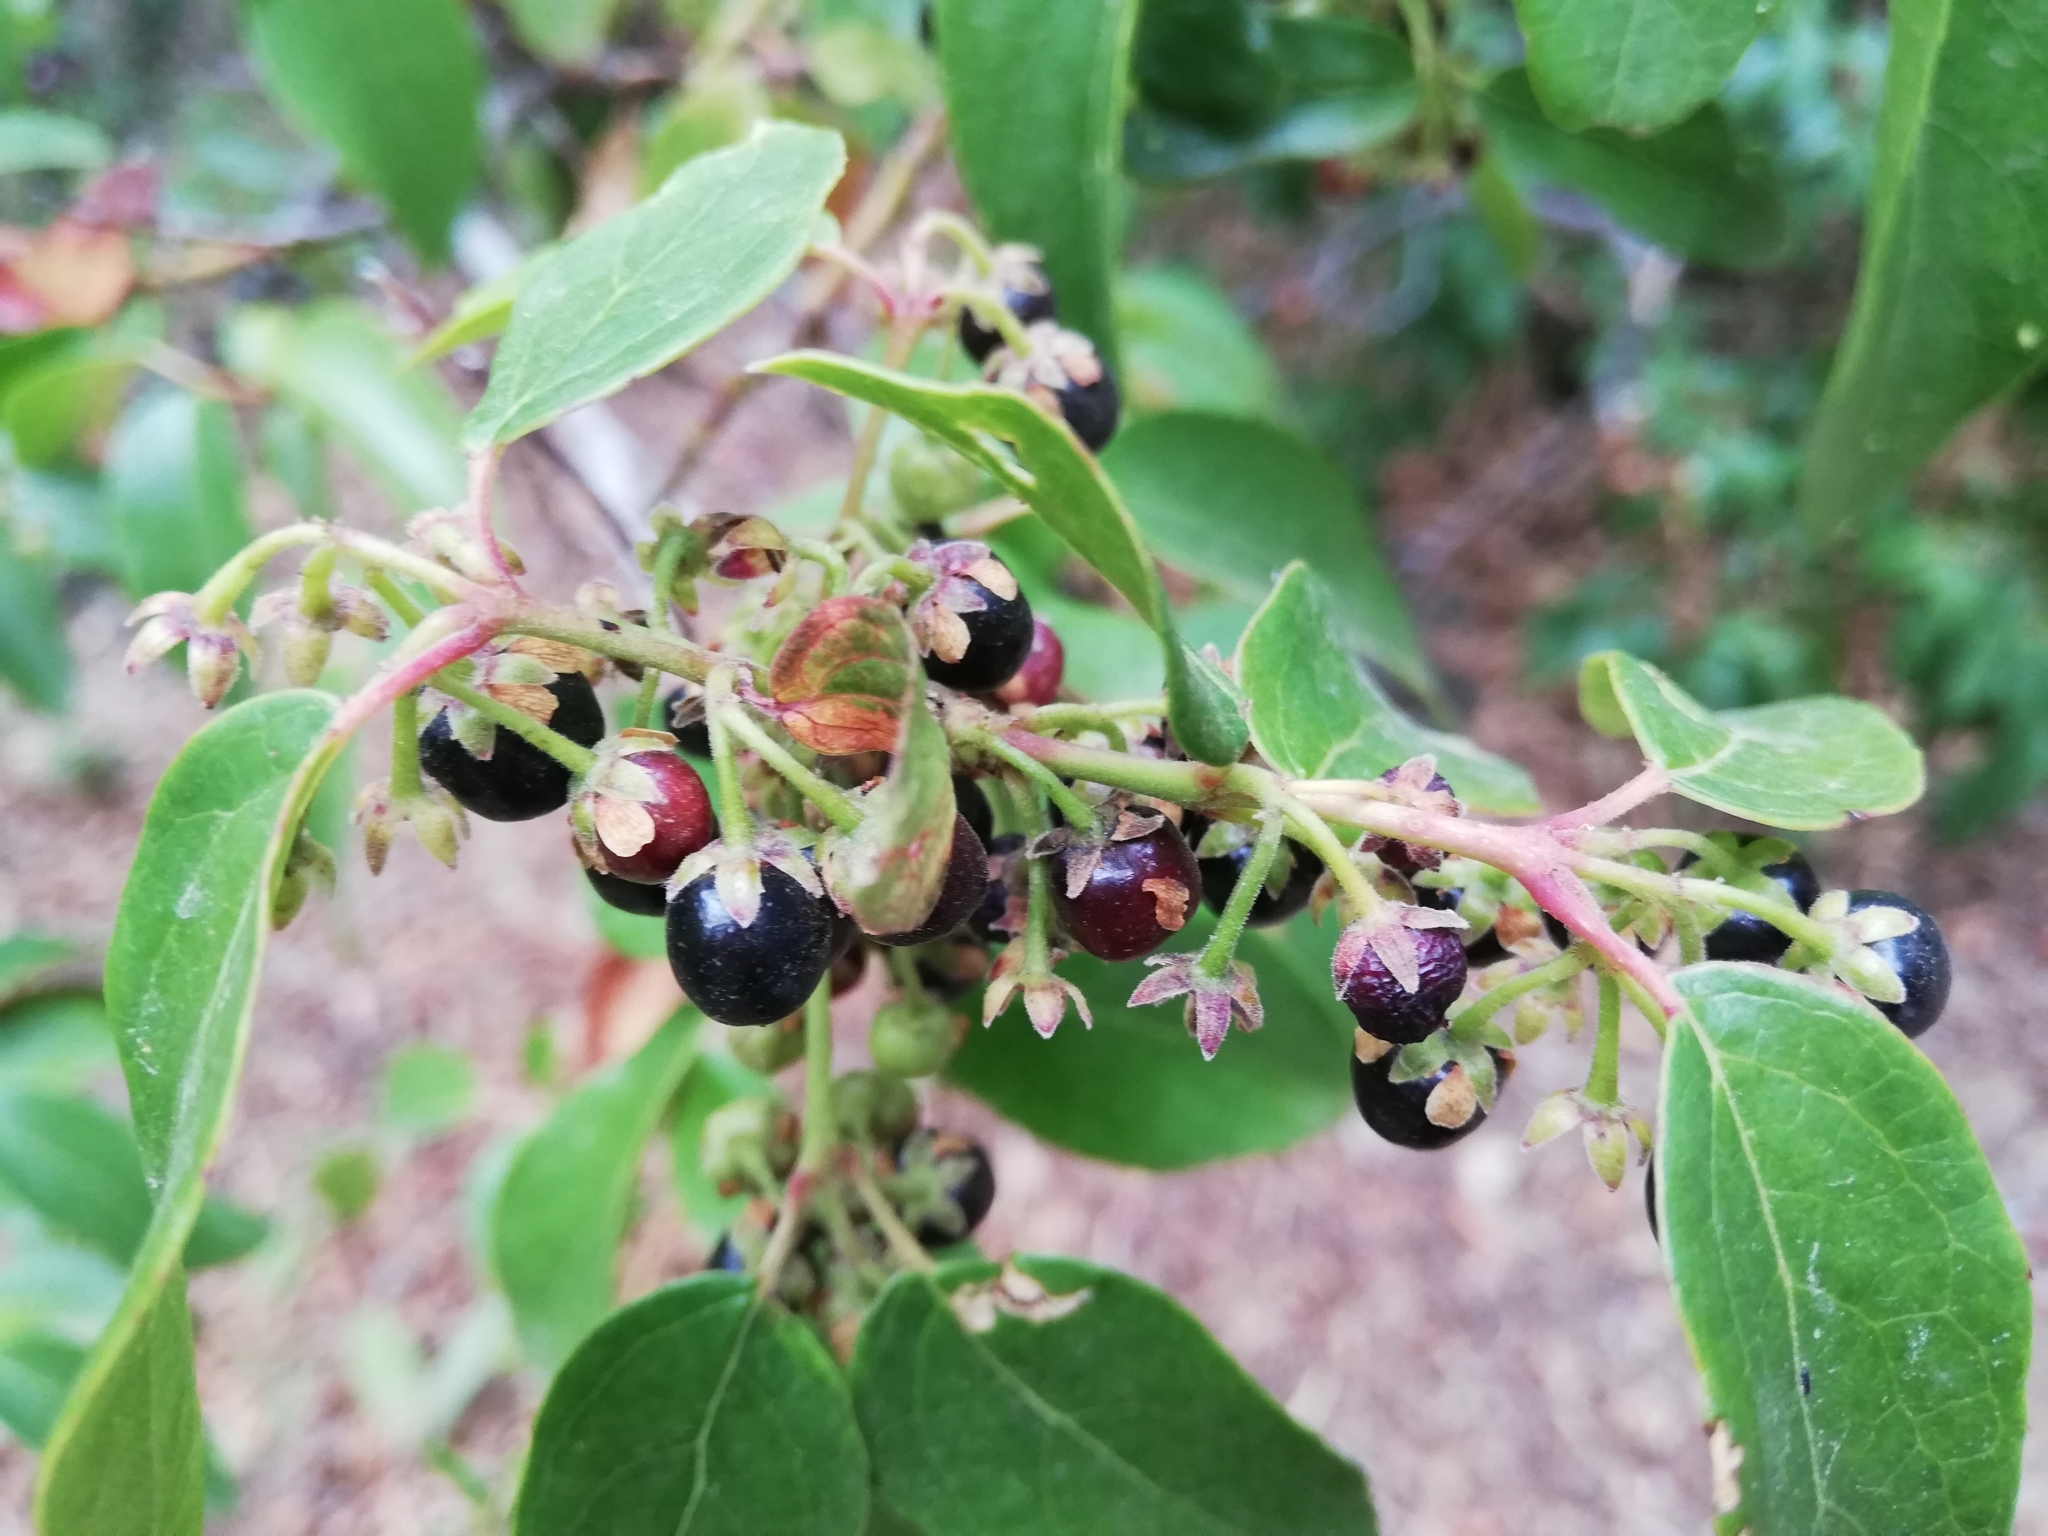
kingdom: Plantae
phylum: Tracheophyta
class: Magnoliopsida
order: Oxalidales
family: Elaeocarpaceae
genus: Aristotelia
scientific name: Aristotelia chilensis
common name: Maquei
